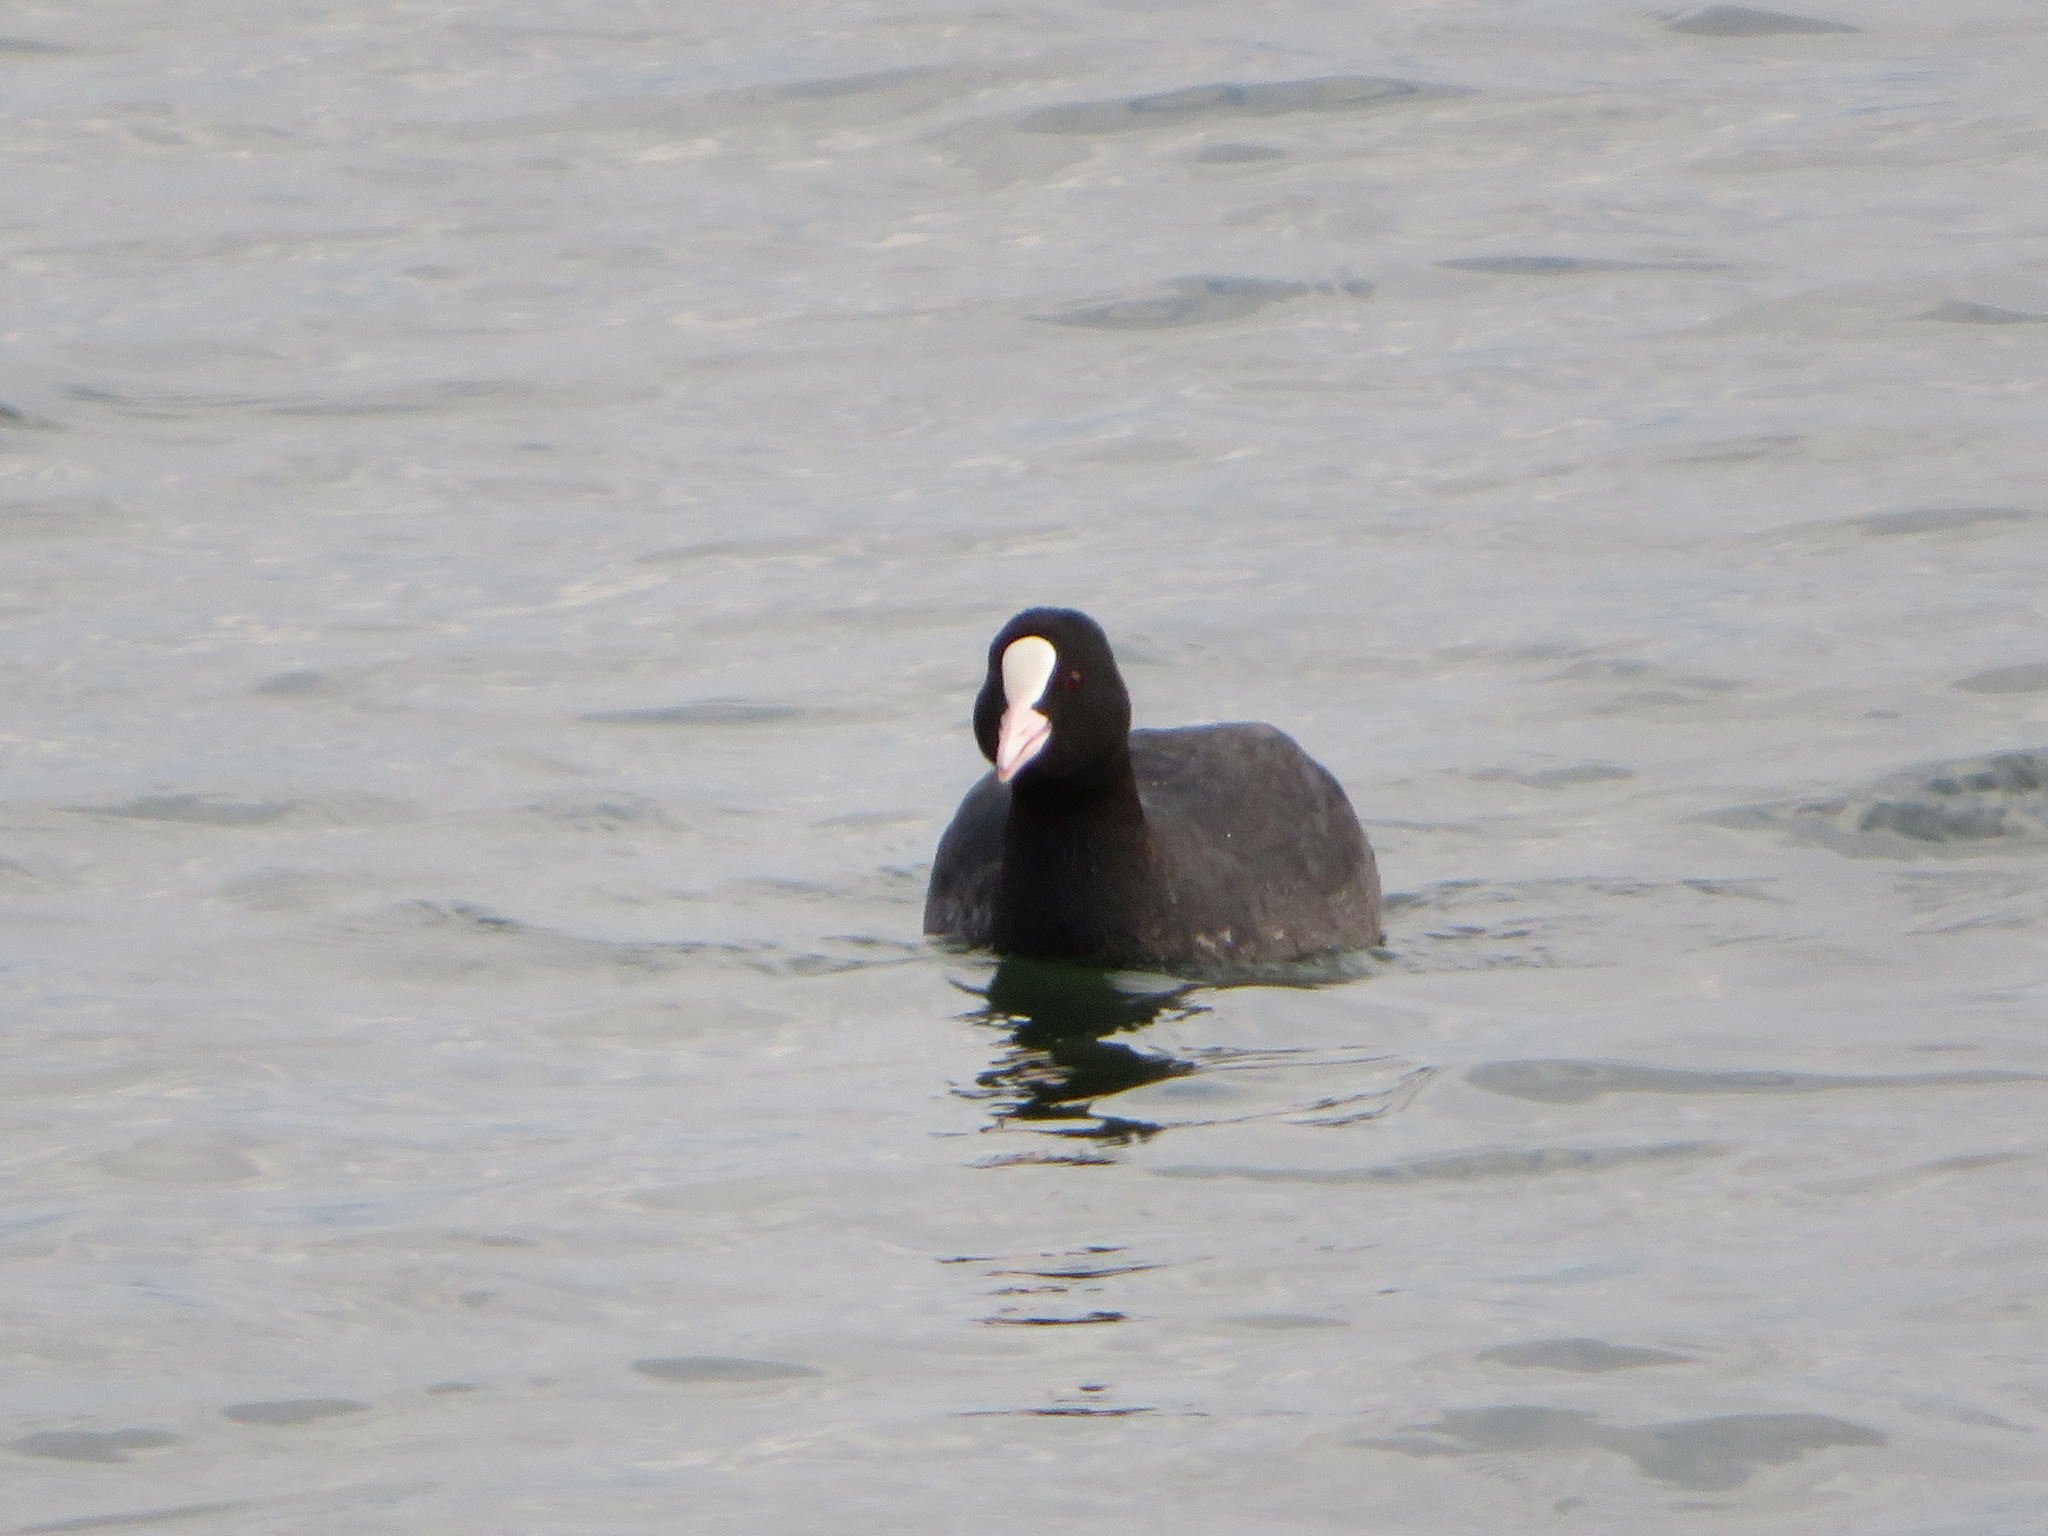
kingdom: Animalia
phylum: Chordata
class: Aves
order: Gruiformes
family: Rallidae
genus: Fulica
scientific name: Fulica atra
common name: Eurasian coot
